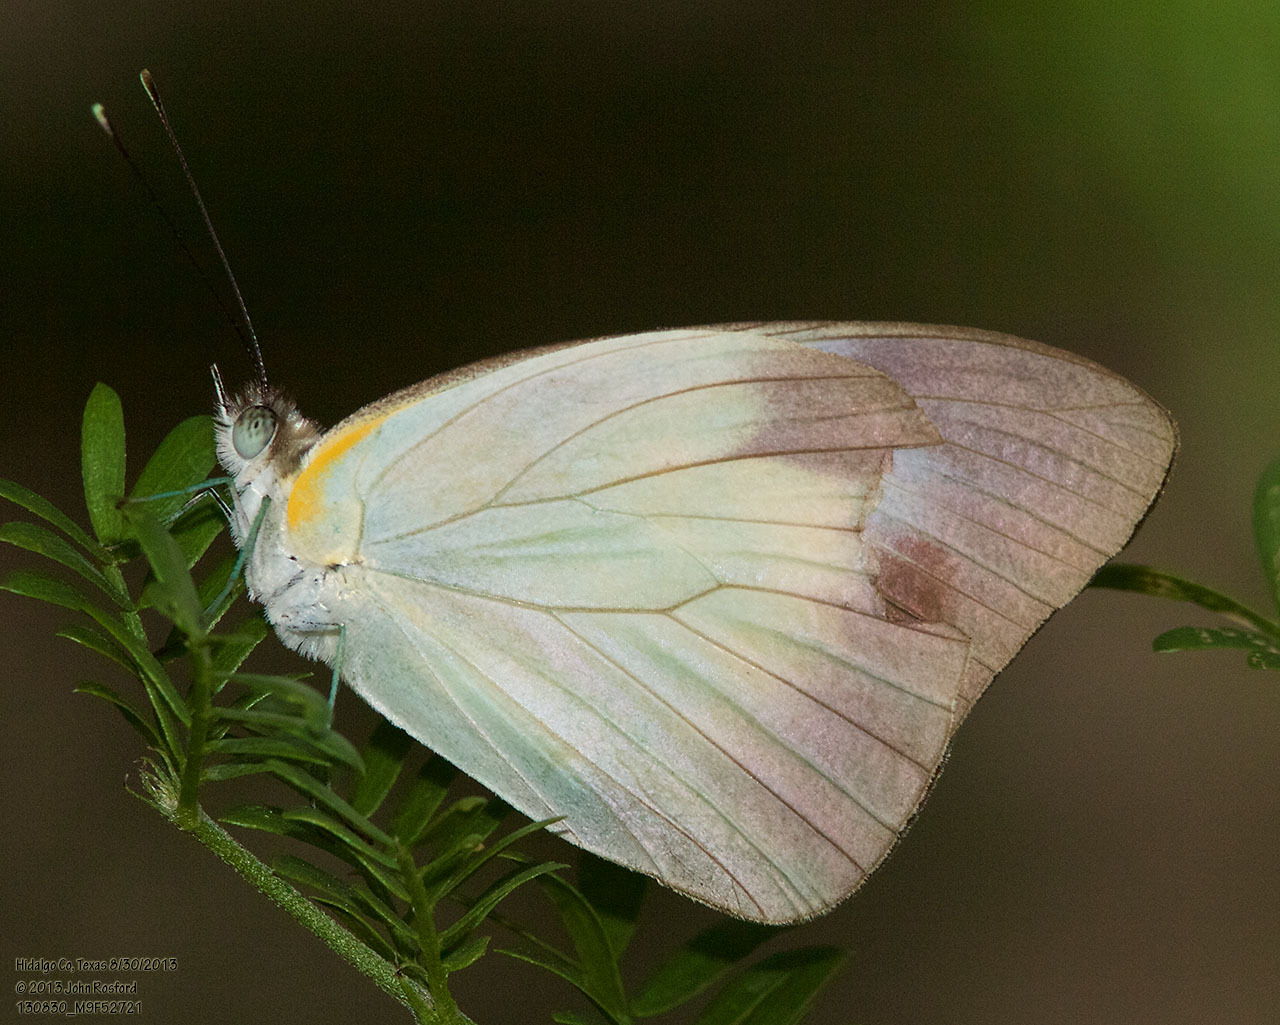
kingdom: Animalia
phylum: Arthropoda
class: Insecta
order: Lepidoptera
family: Pieridae
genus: Glutophrissa
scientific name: Glutophrissa drusilla
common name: Florida white
